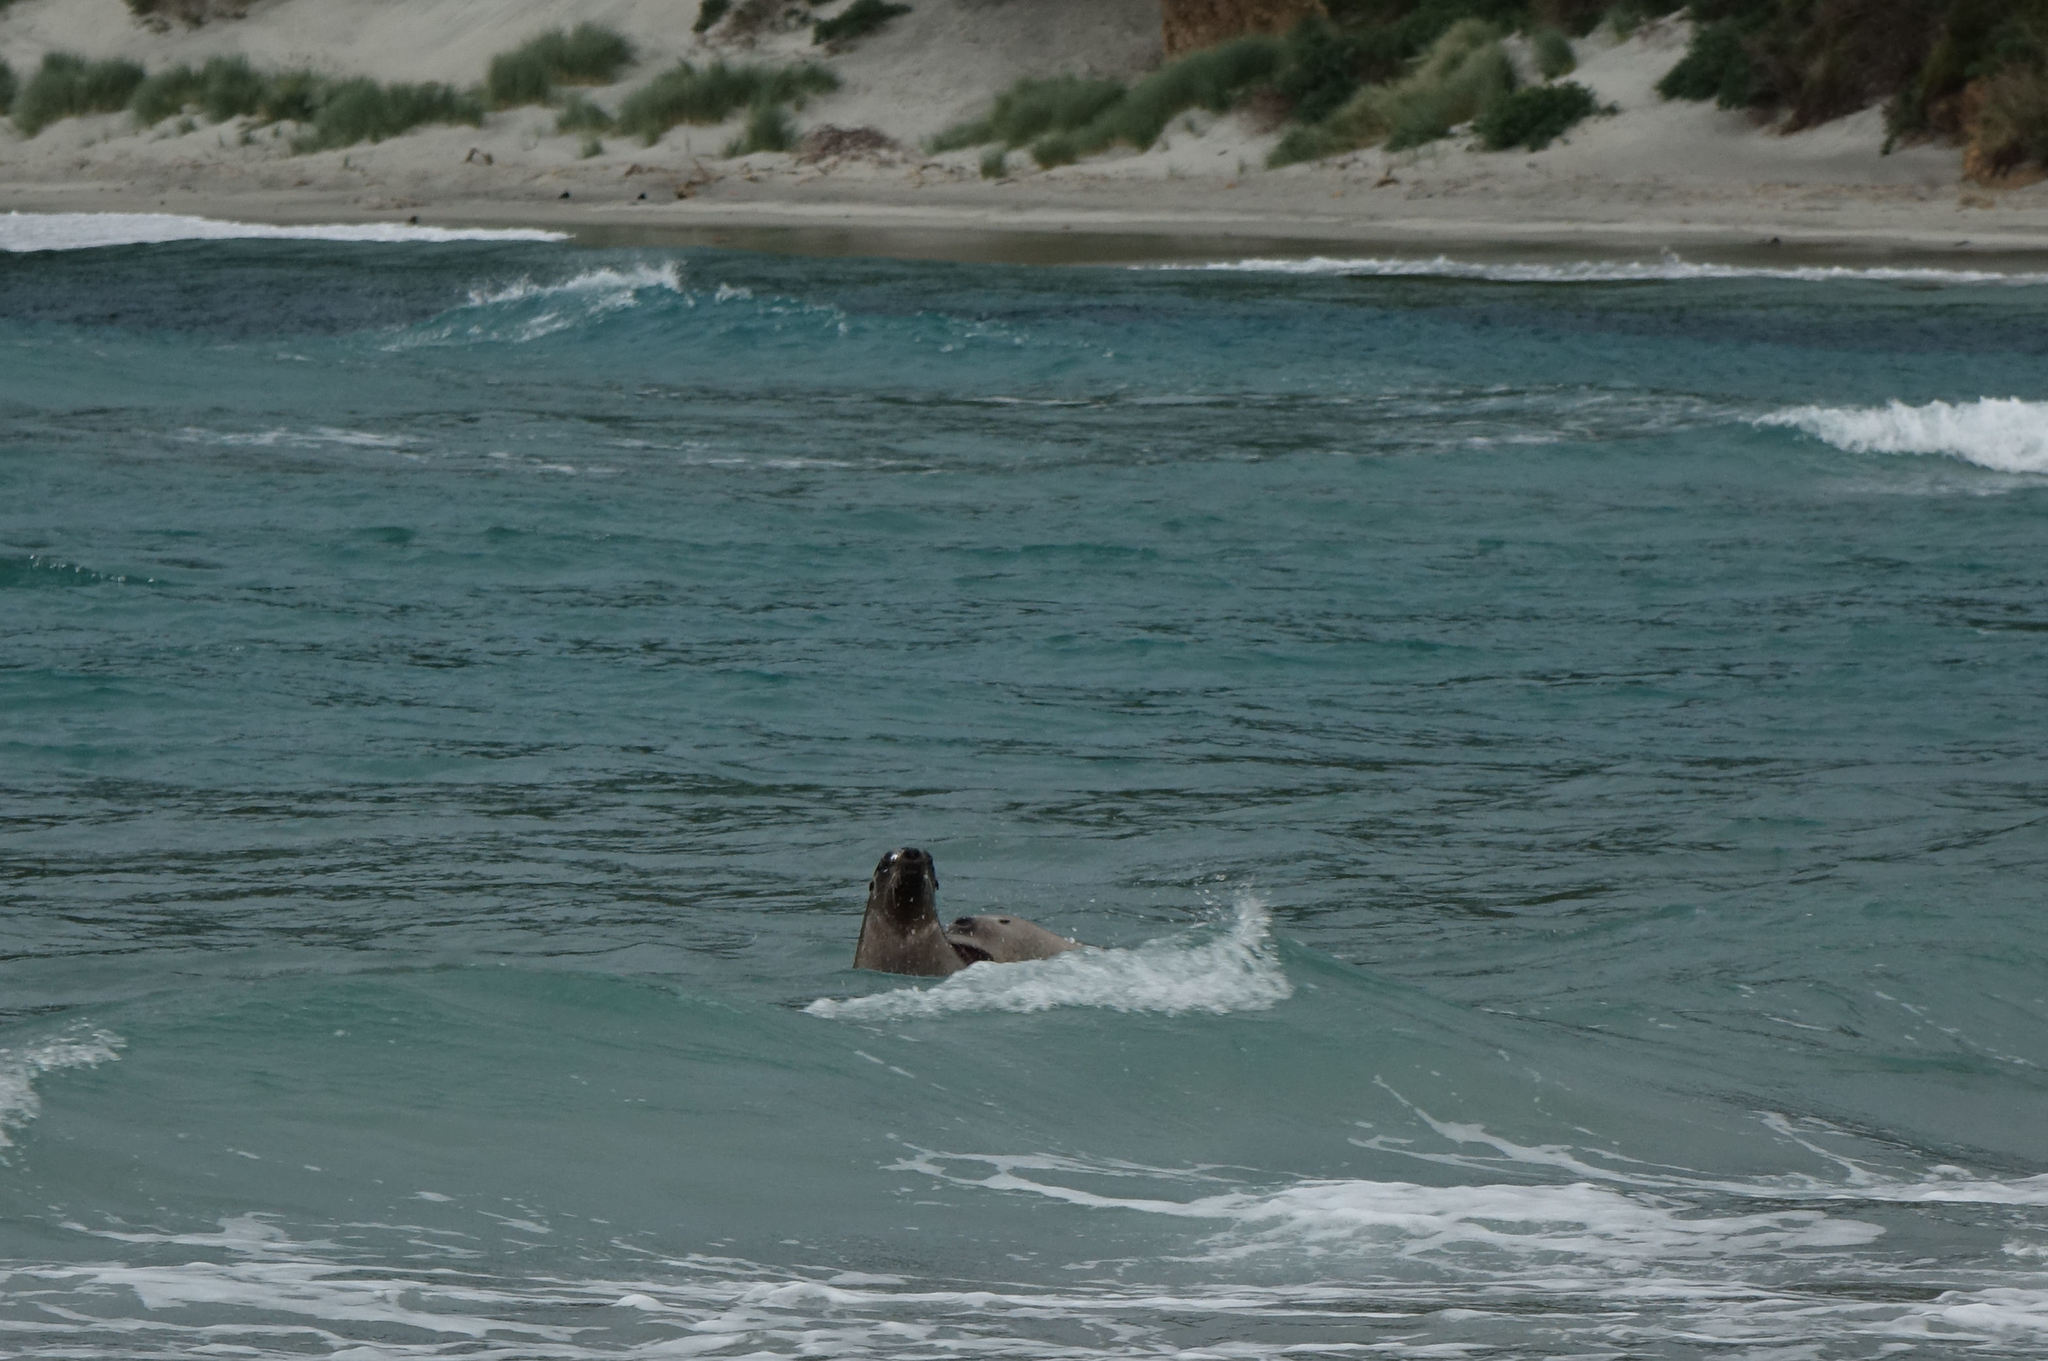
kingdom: Animalia
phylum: Chordata
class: Mammalia
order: Carnivora
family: Otariidae
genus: Phocarctos
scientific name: Phocarctos hookeri
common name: New zealand sea lion
